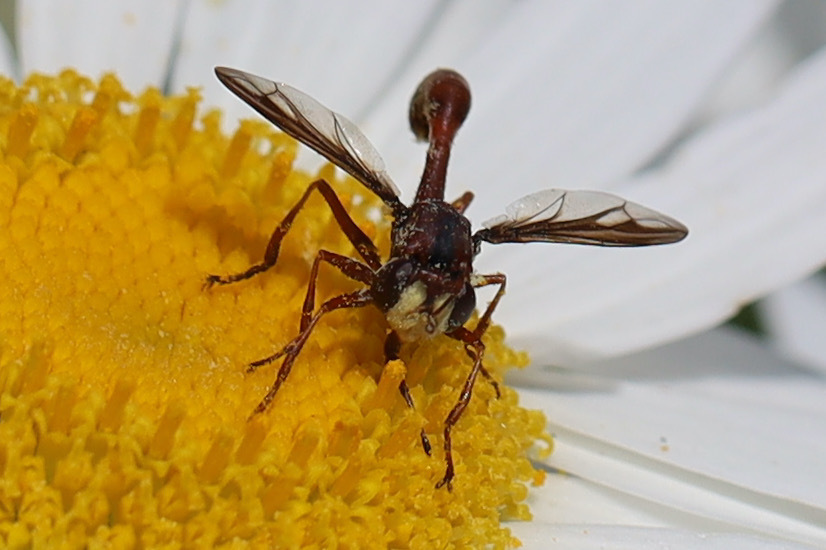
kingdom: Animalia
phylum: Arthropoda
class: Insecta
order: Diptera
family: Conopidae
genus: Physocephala
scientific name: Physocephala burgessi
